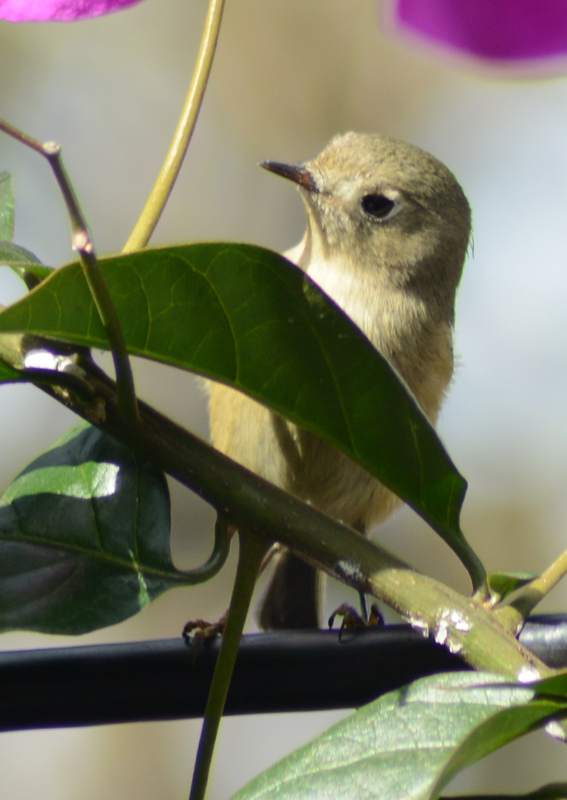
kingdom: Animalia
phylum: Chordata
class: Aves
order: Passeriformes
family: Regulidae
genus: Regulus
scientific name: Regulus calendula
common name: Ruby-crowned kinglet
